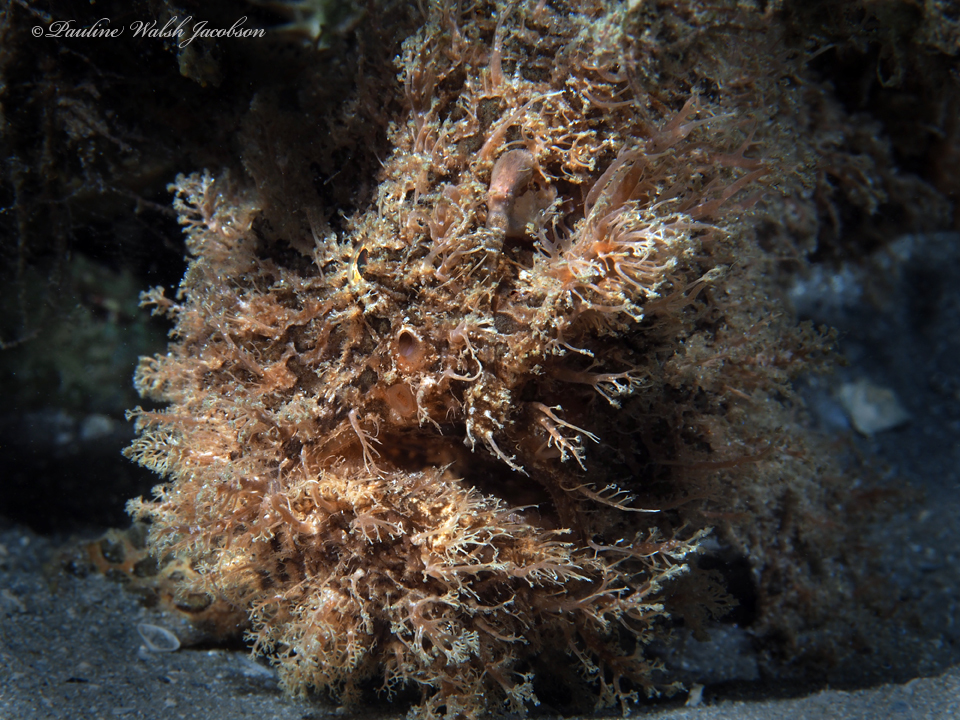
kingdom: Animalia
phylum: Chordata
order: Lophiiformes
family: Antennariidae
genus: Antennarius
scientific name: Antennarius striatus
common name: Striated frogfish
